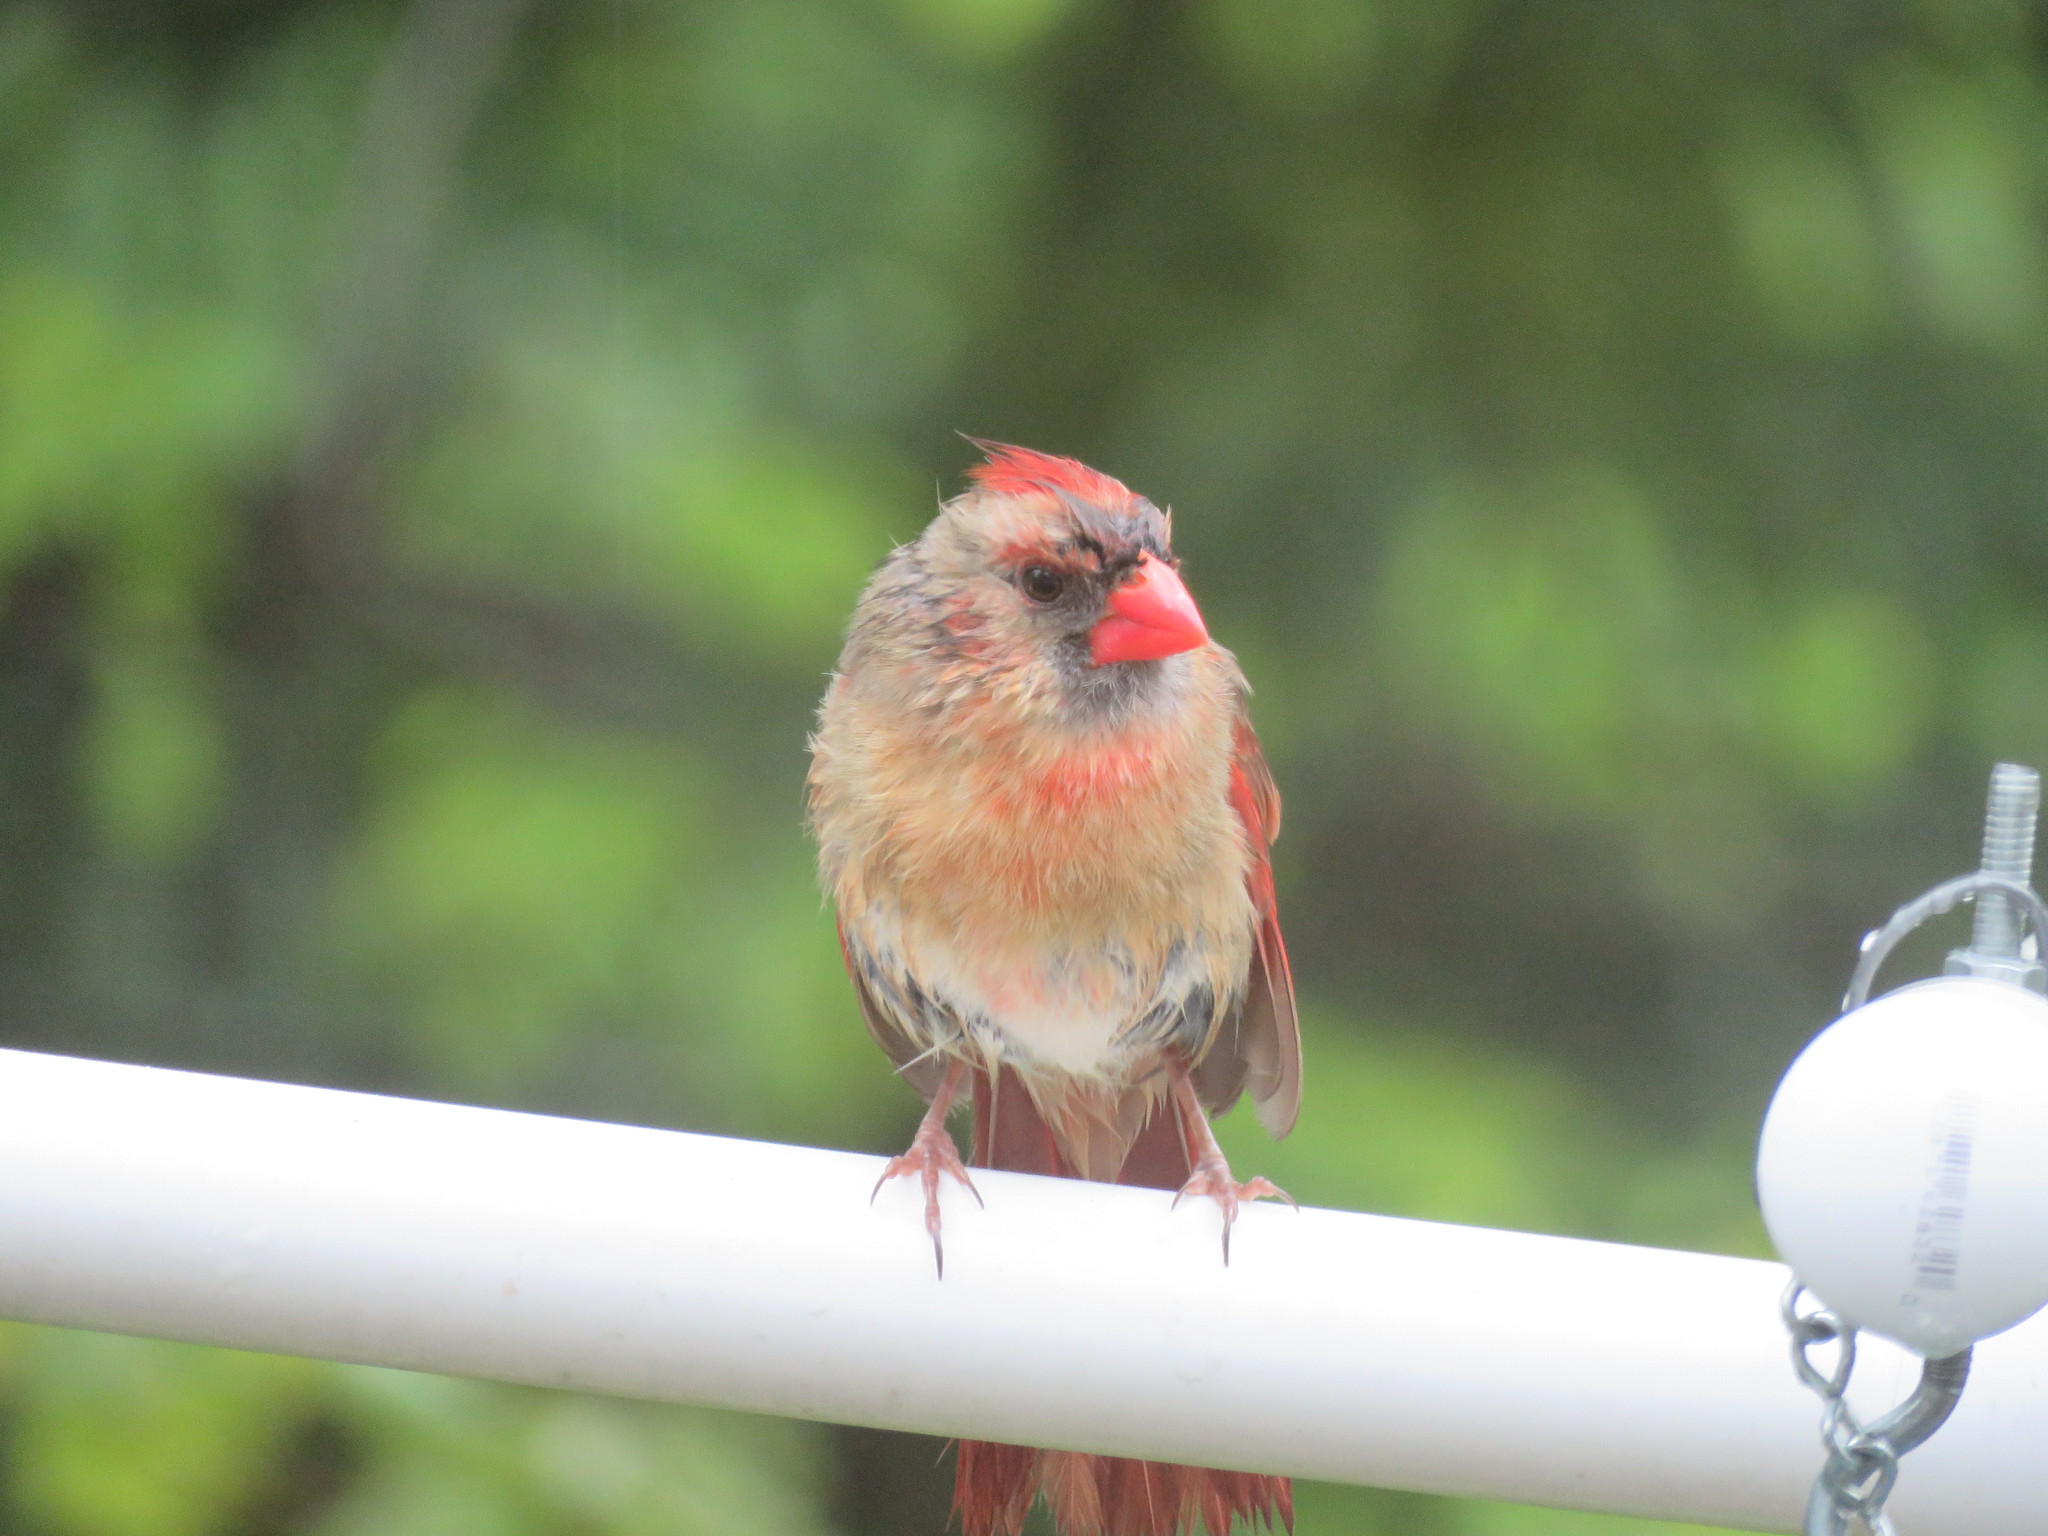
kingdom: Animalia
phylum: Chordata
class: Aves
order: Passeriformes
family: Cardinalidae
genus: Cardinalis
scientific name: Cardinalis cardinalis
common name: Northern cardinal
